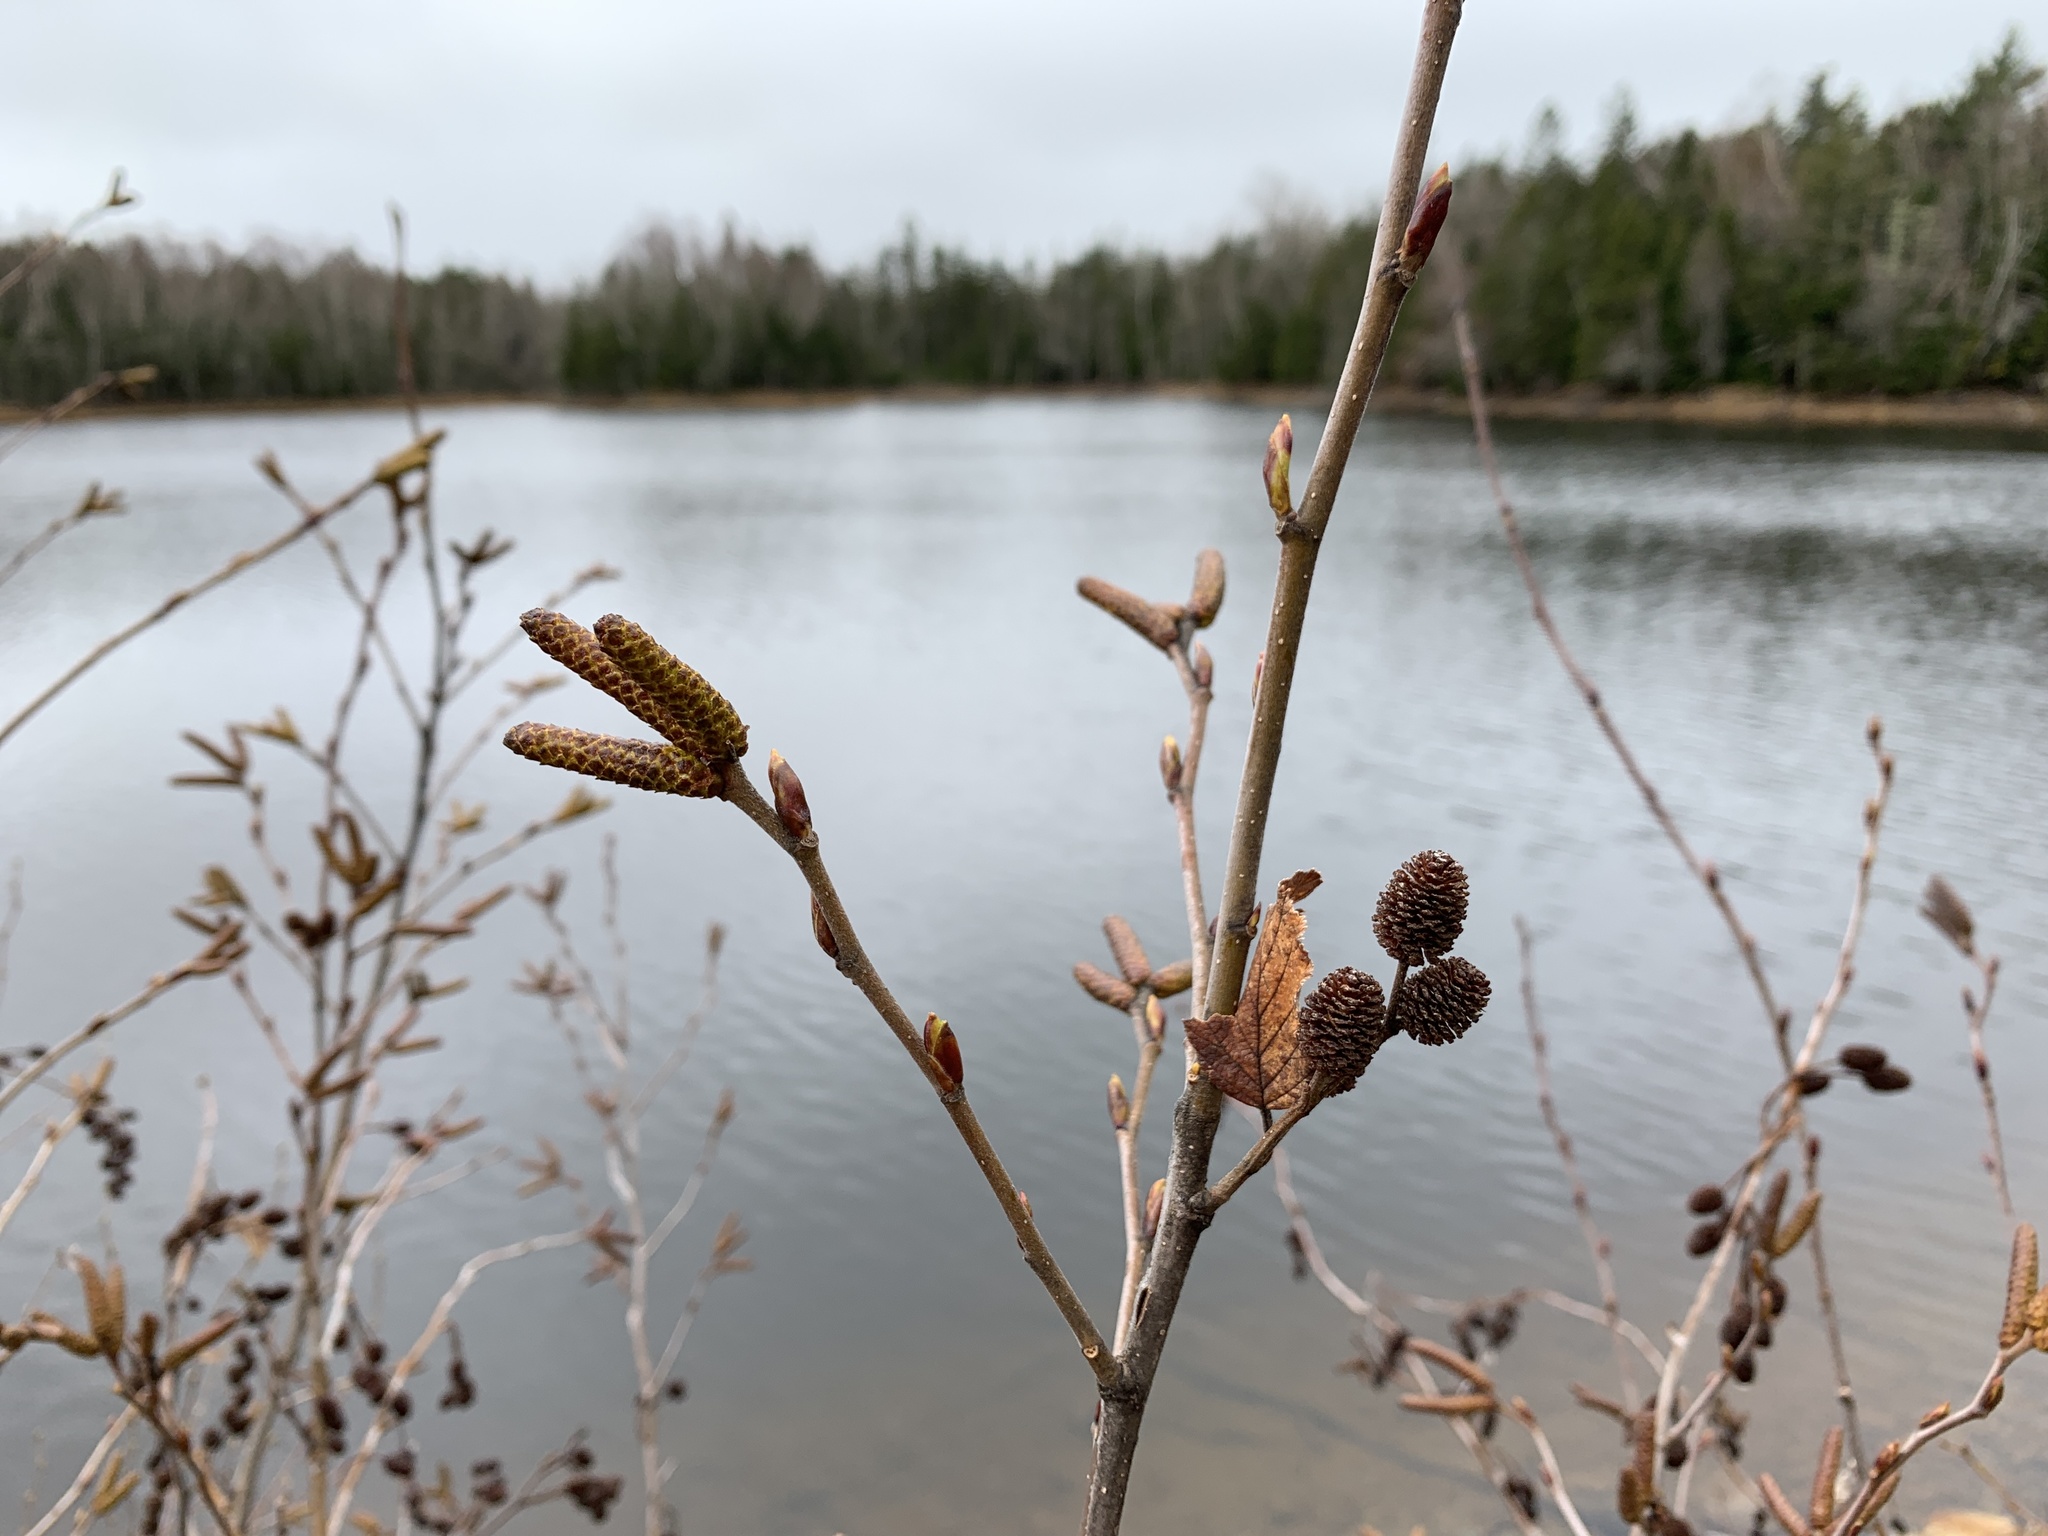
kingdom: Plantae
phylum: Tracheophyta
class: Magnoliopsida
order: Fagales
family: Betulaceae
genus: Alnus
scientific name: Alnus alnobetula
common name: Green alder
